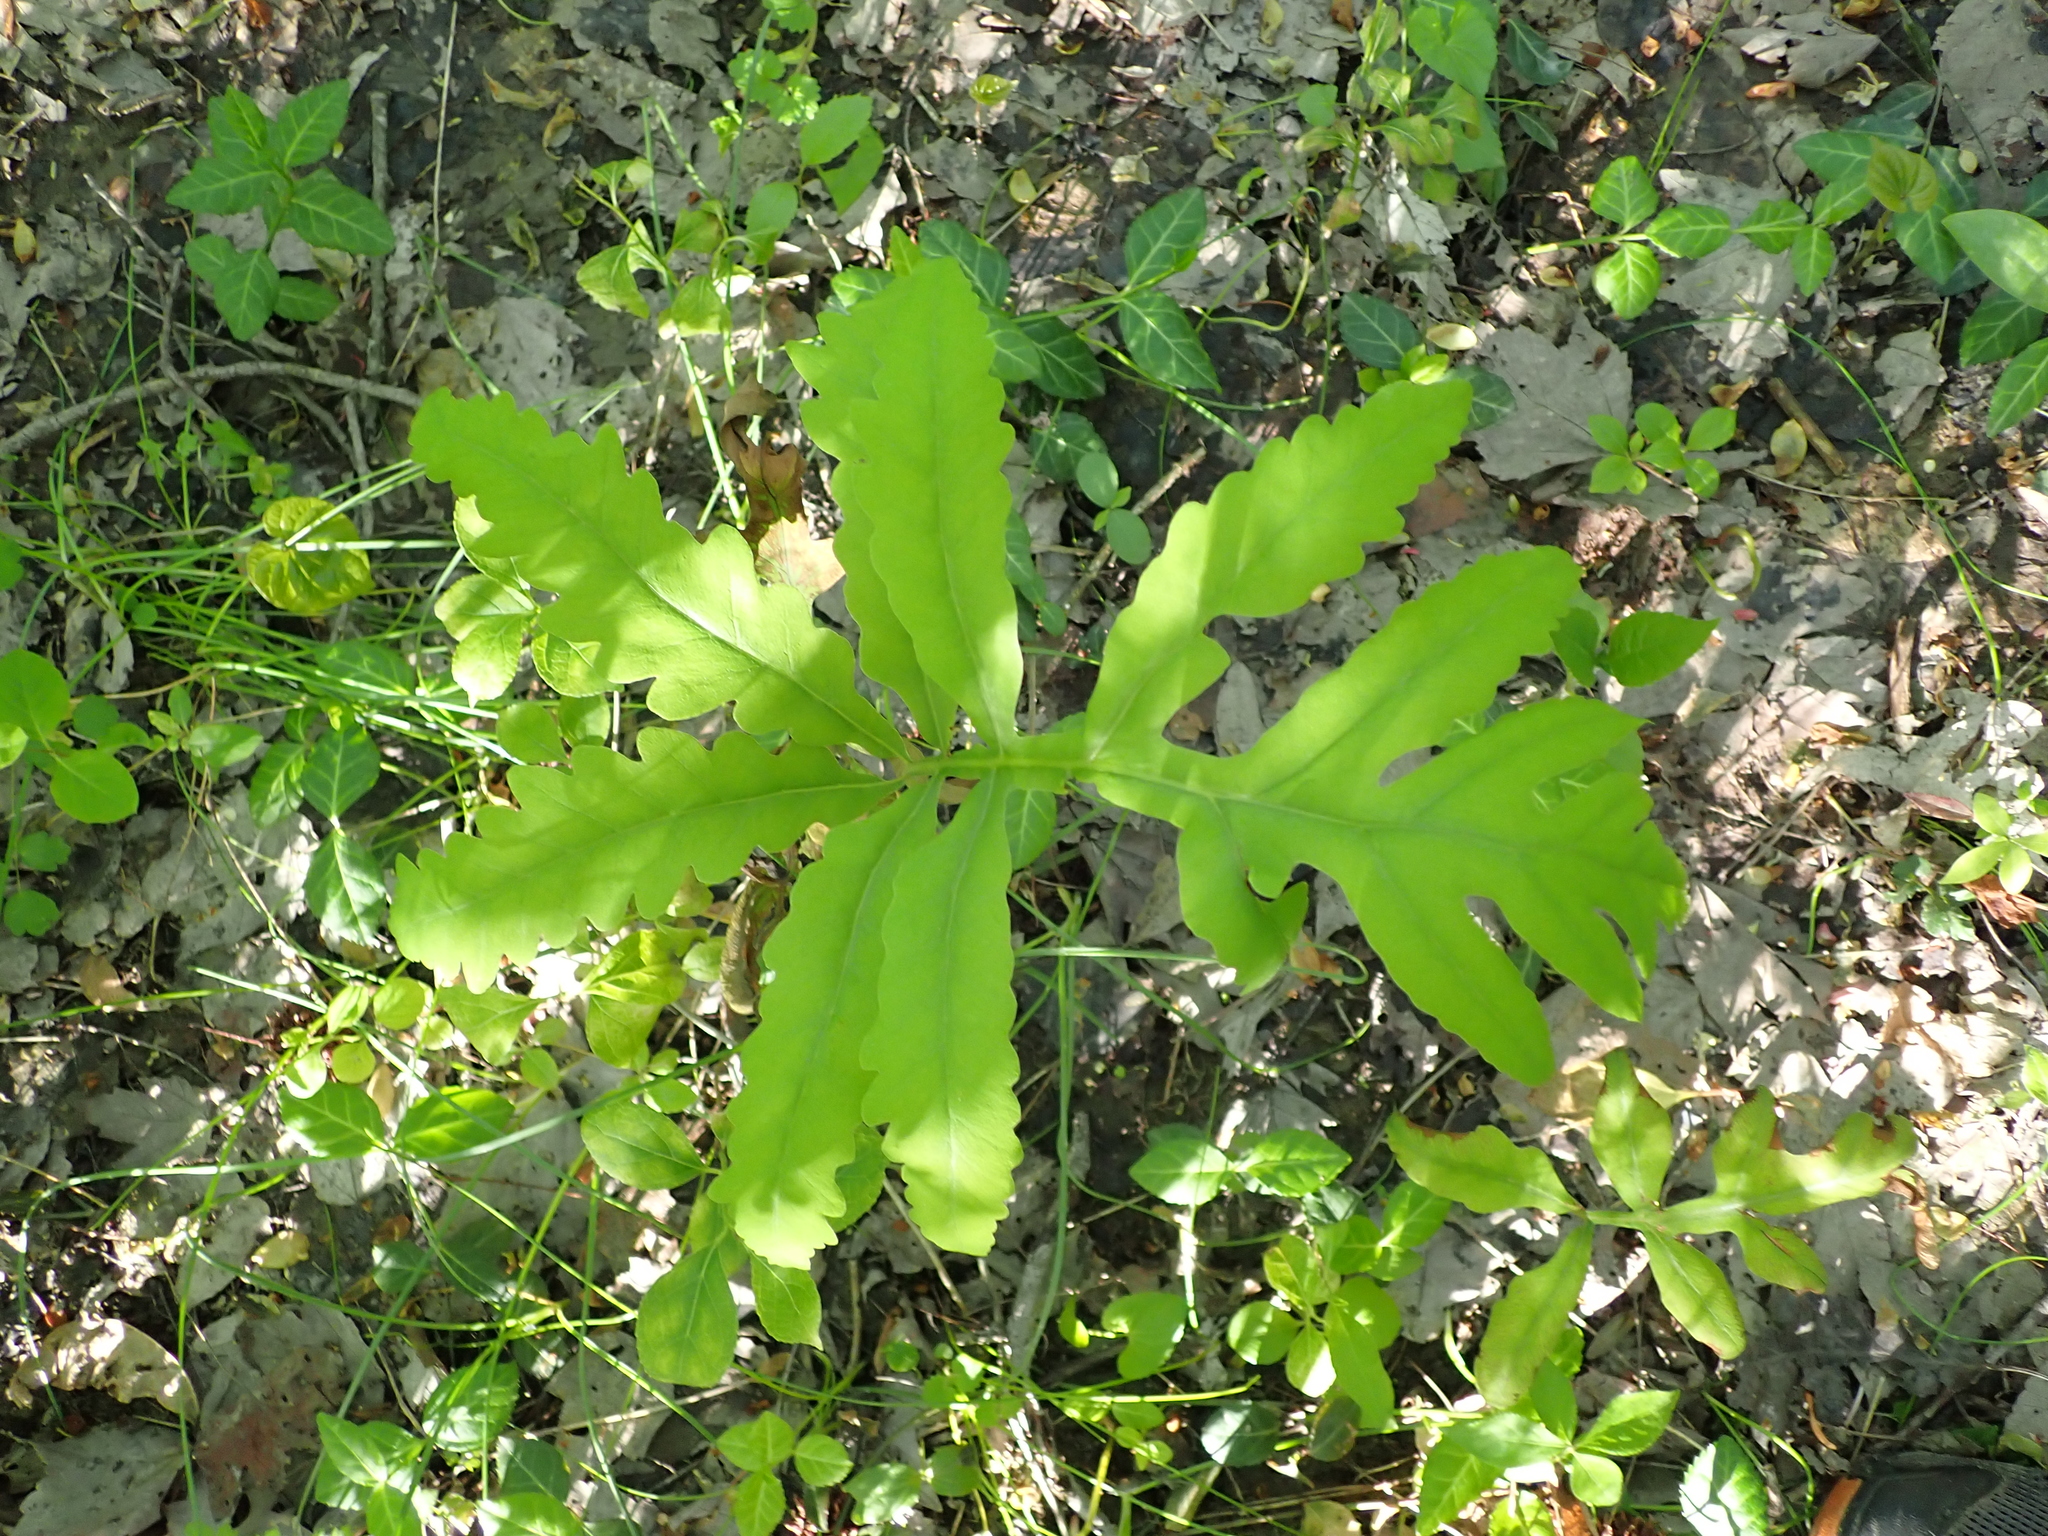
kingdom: Plantae
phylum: Tracheophyta
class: Polypodiopsida
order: Polypodiales
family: Onocleaceae
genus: Onoclea
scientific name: Onoclea sensibilis
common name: Sensitive fern
